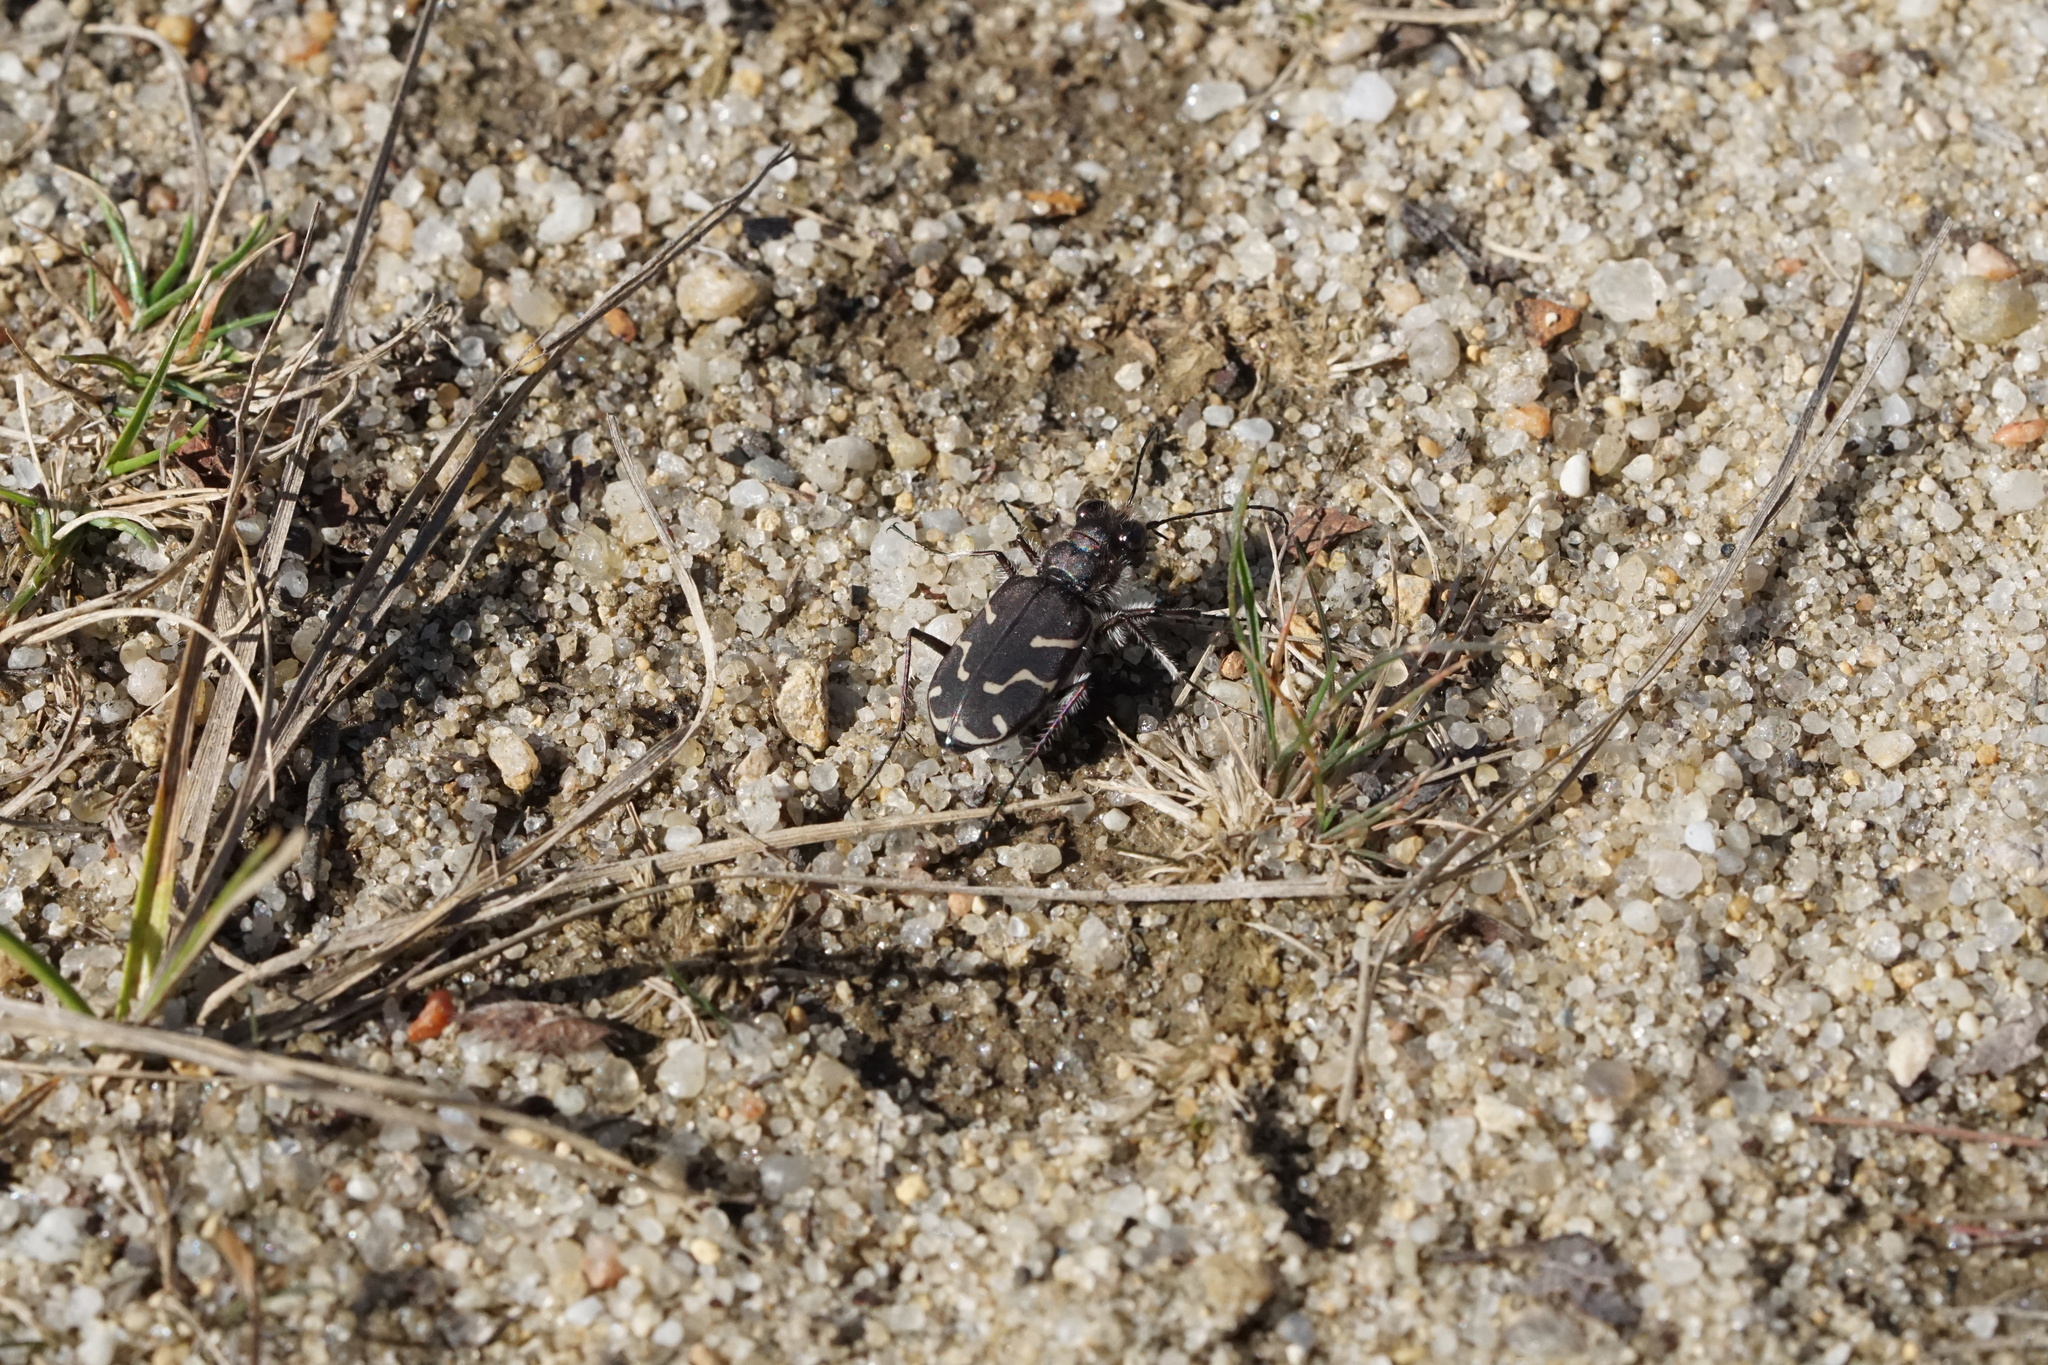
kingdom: Animalia
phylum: Arthropoda
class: Insecta
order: Coleoptera
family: Carabidae
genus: Cicindela
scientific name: Cicindela tranquebarica
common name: Oblique-lined tiger beetle
